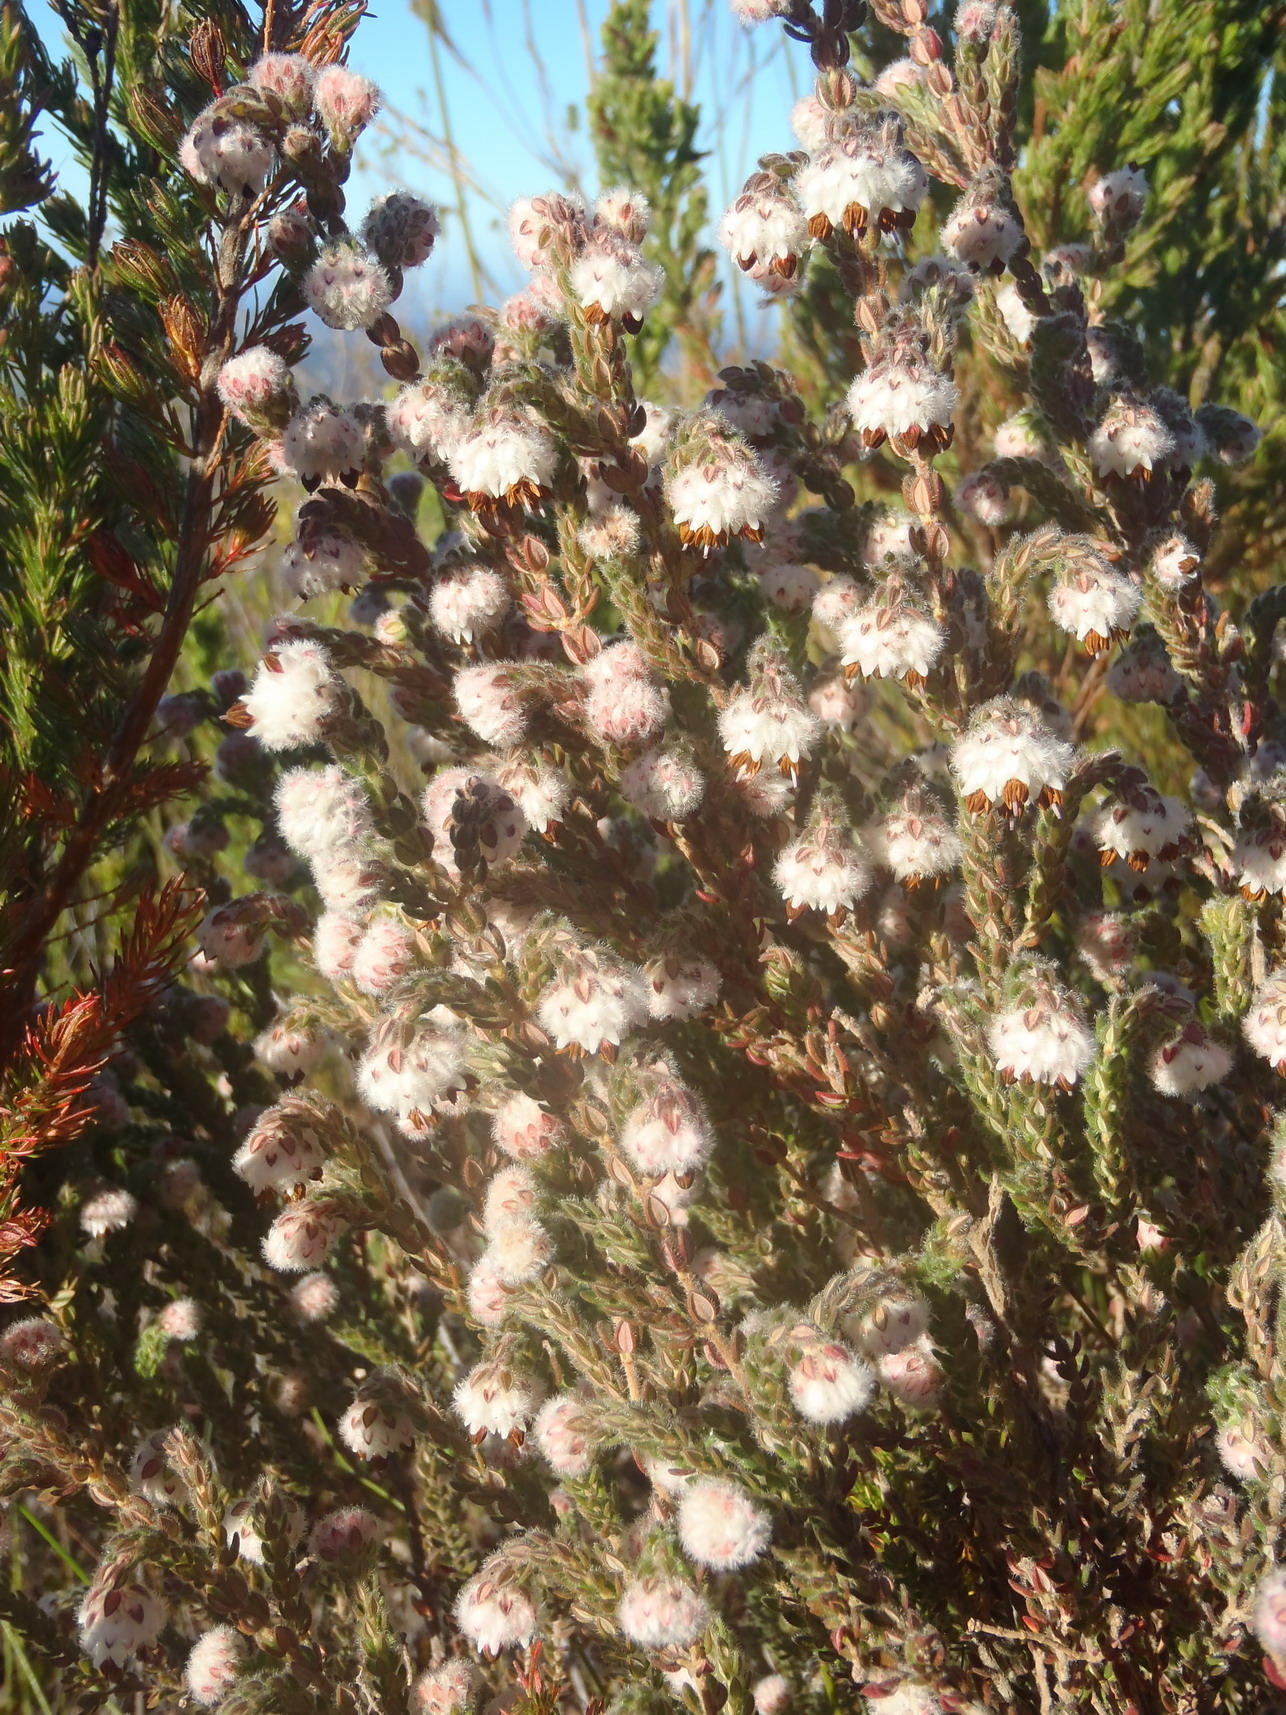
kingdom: Plantae
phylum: Tracheophyta
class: Magnoliopsida
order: Ericales
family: Ericaceae
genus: Erica
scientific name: Erica flaccida
